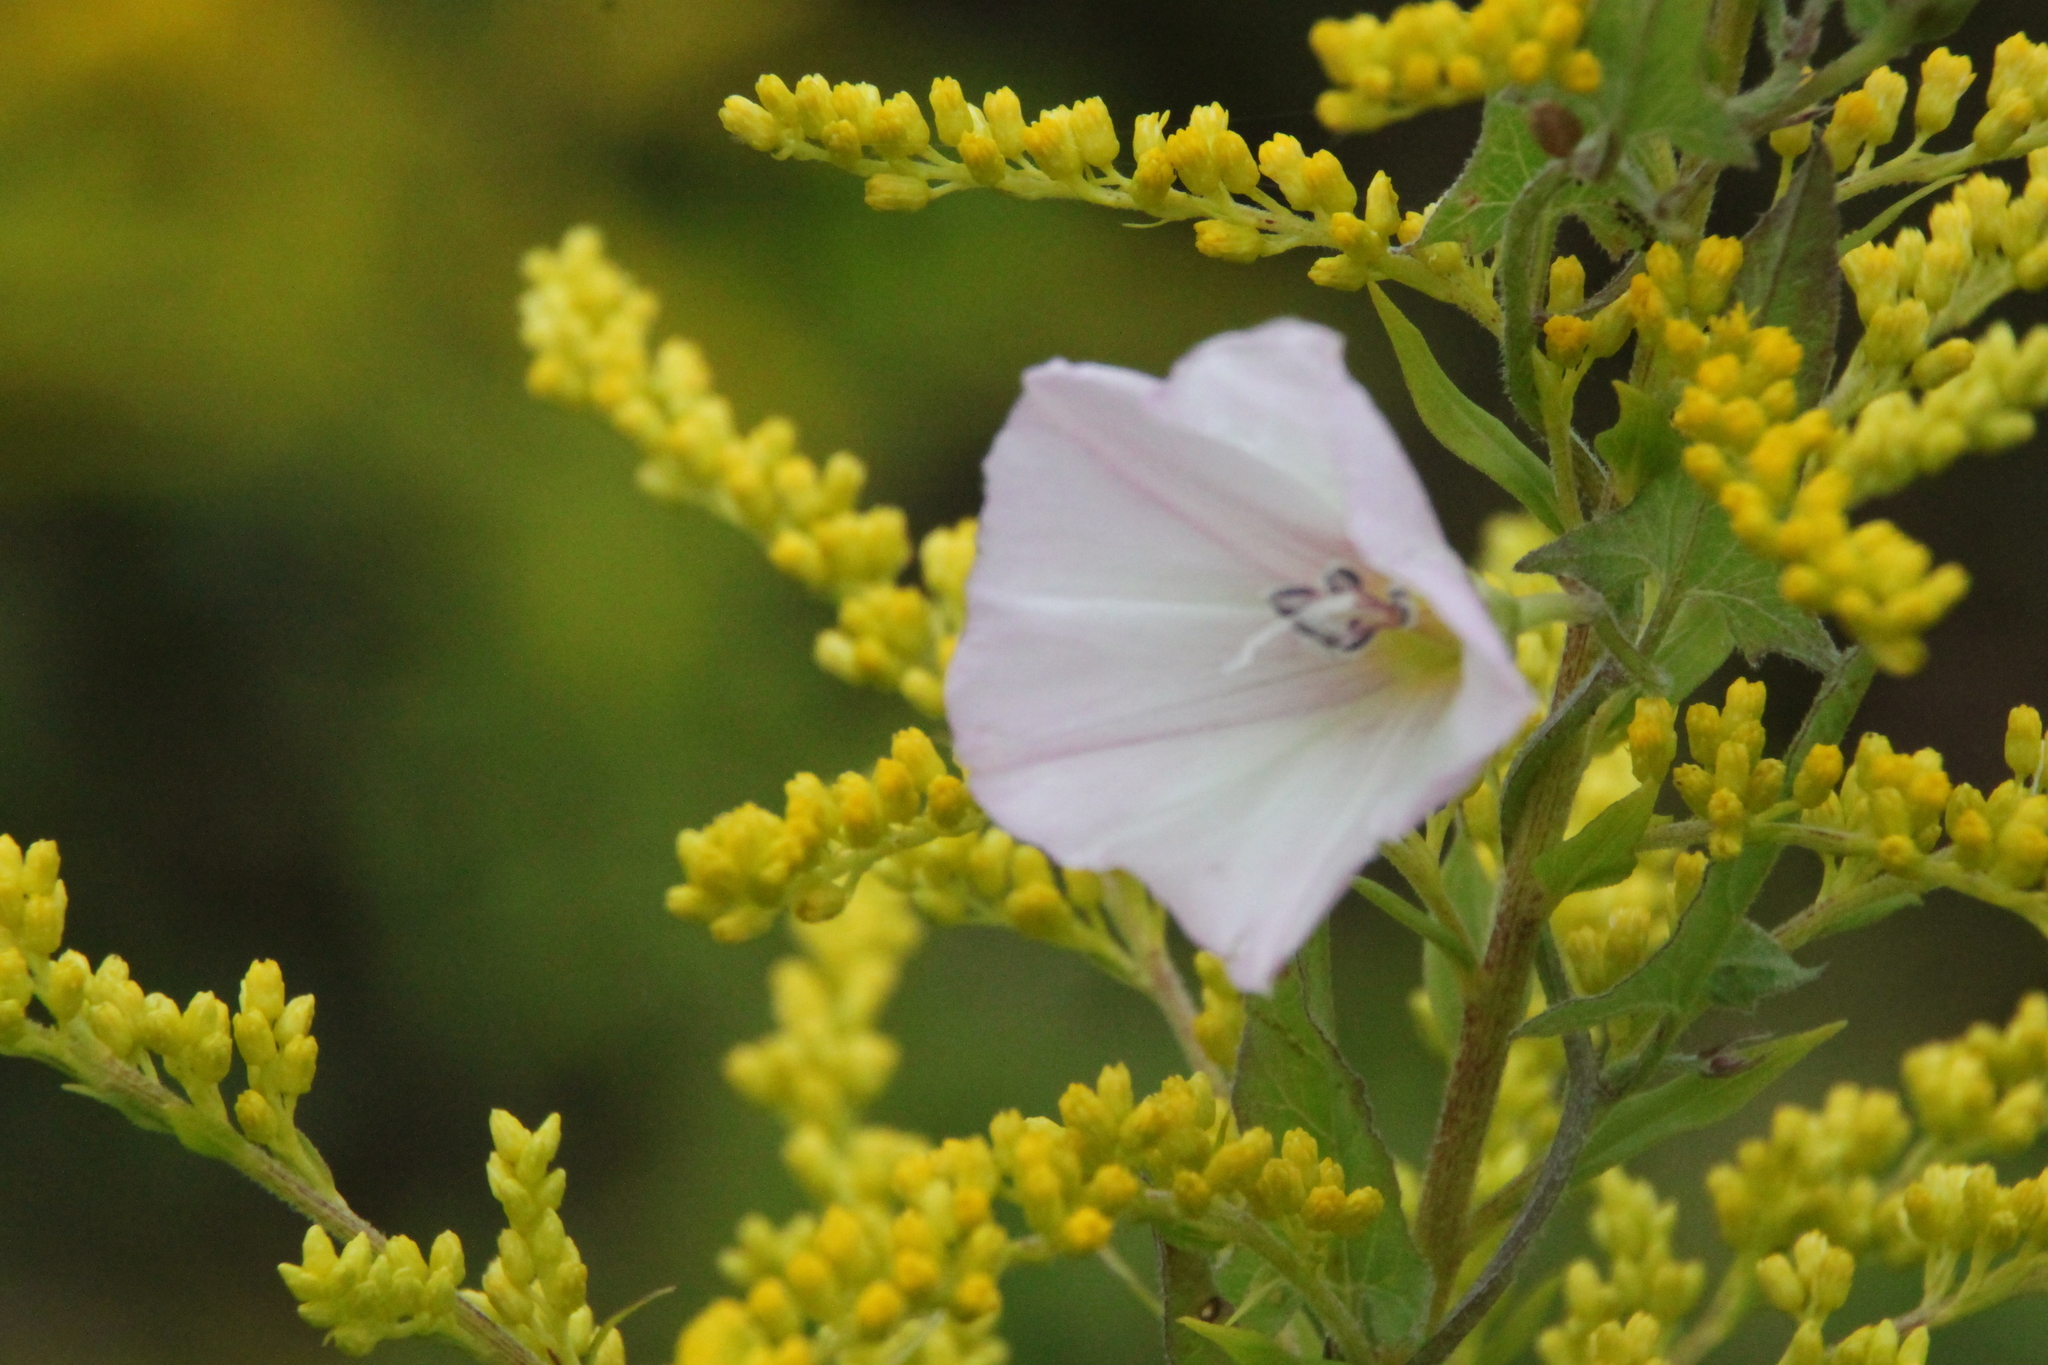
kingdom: Plantae
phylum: Tracheophyta
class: Magnoliopsida
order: Solanales
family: Convolvulaceae
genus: Convolvulus
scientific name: Convolvulus arvensis
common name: Field bindweed
